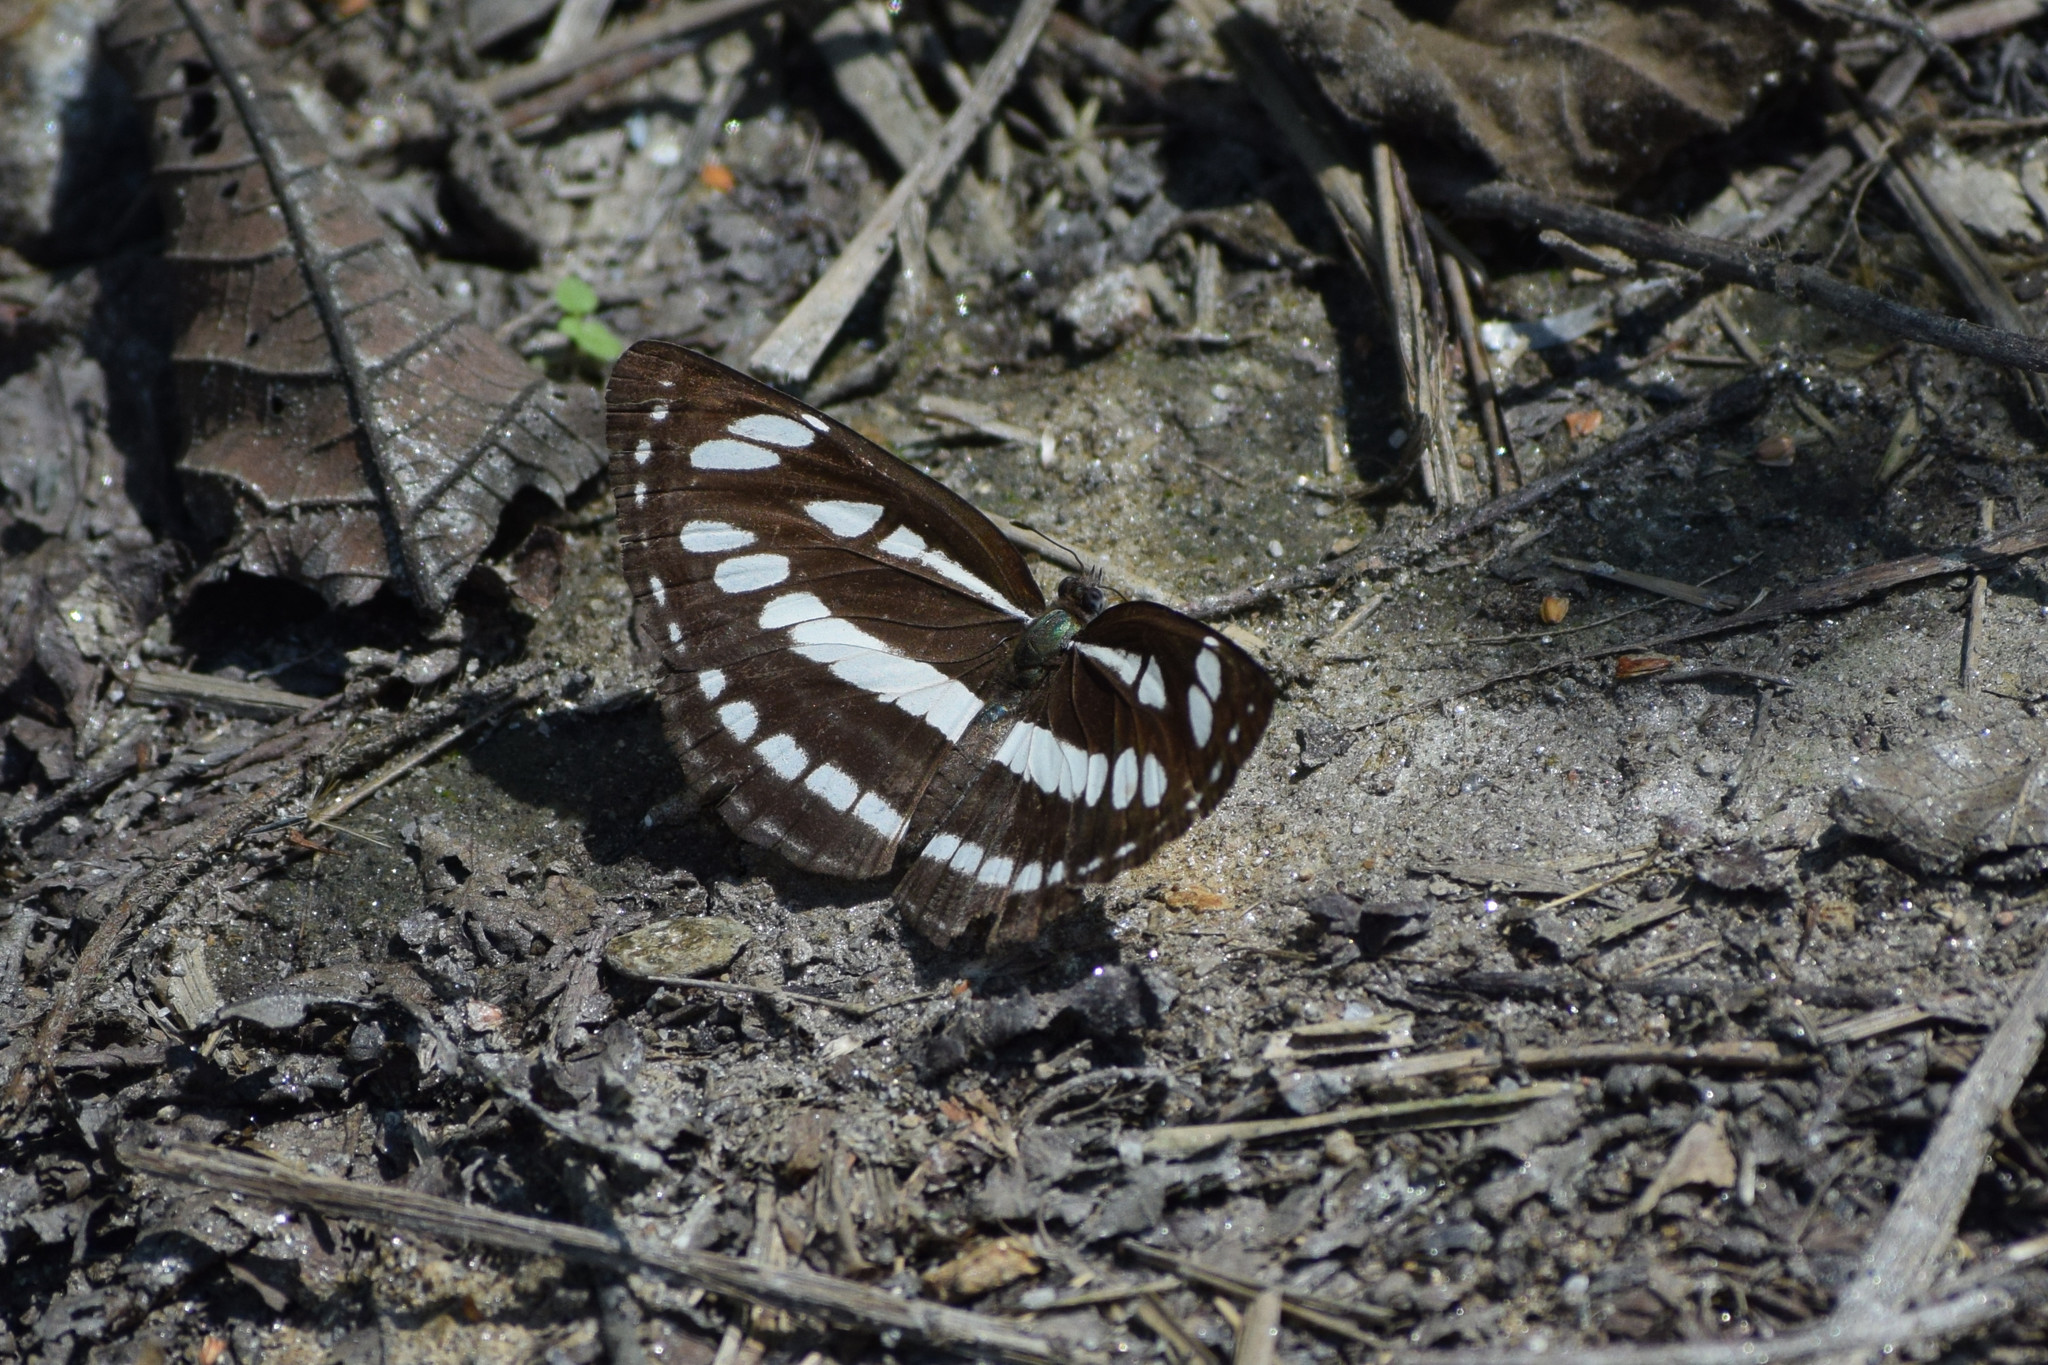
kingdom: Animalia
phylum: Arthropoda
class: Insecta
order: Lepidoptera
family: Nymphalidae
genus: Neptis
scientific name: Neptis hylas
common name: Common sailer
